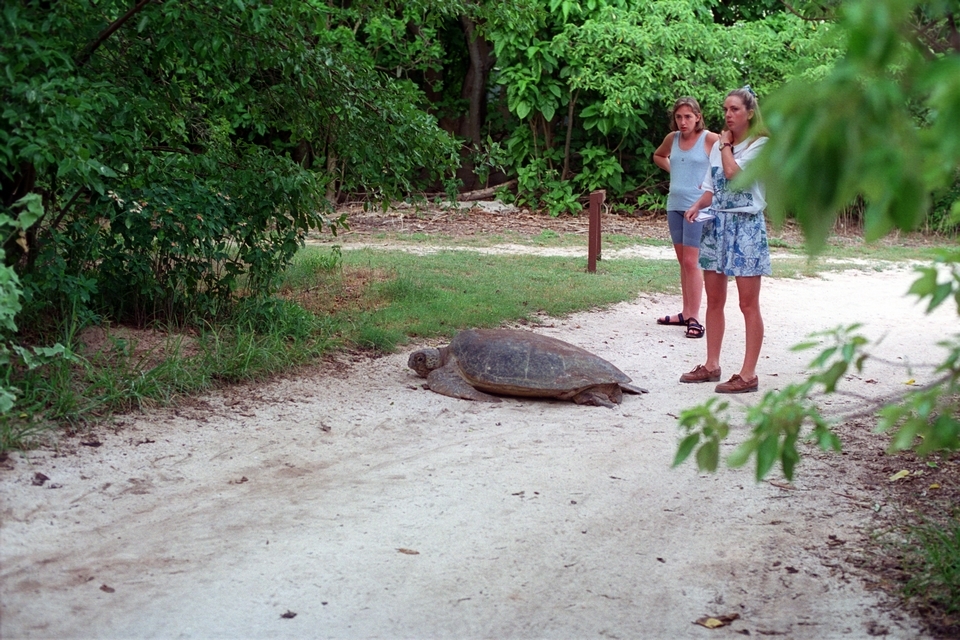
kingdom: Animalia
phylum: Chordata
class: Testudines
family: Cheloniidae
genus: Chelonia
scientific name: Chelonia mydas
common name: Green turtle
